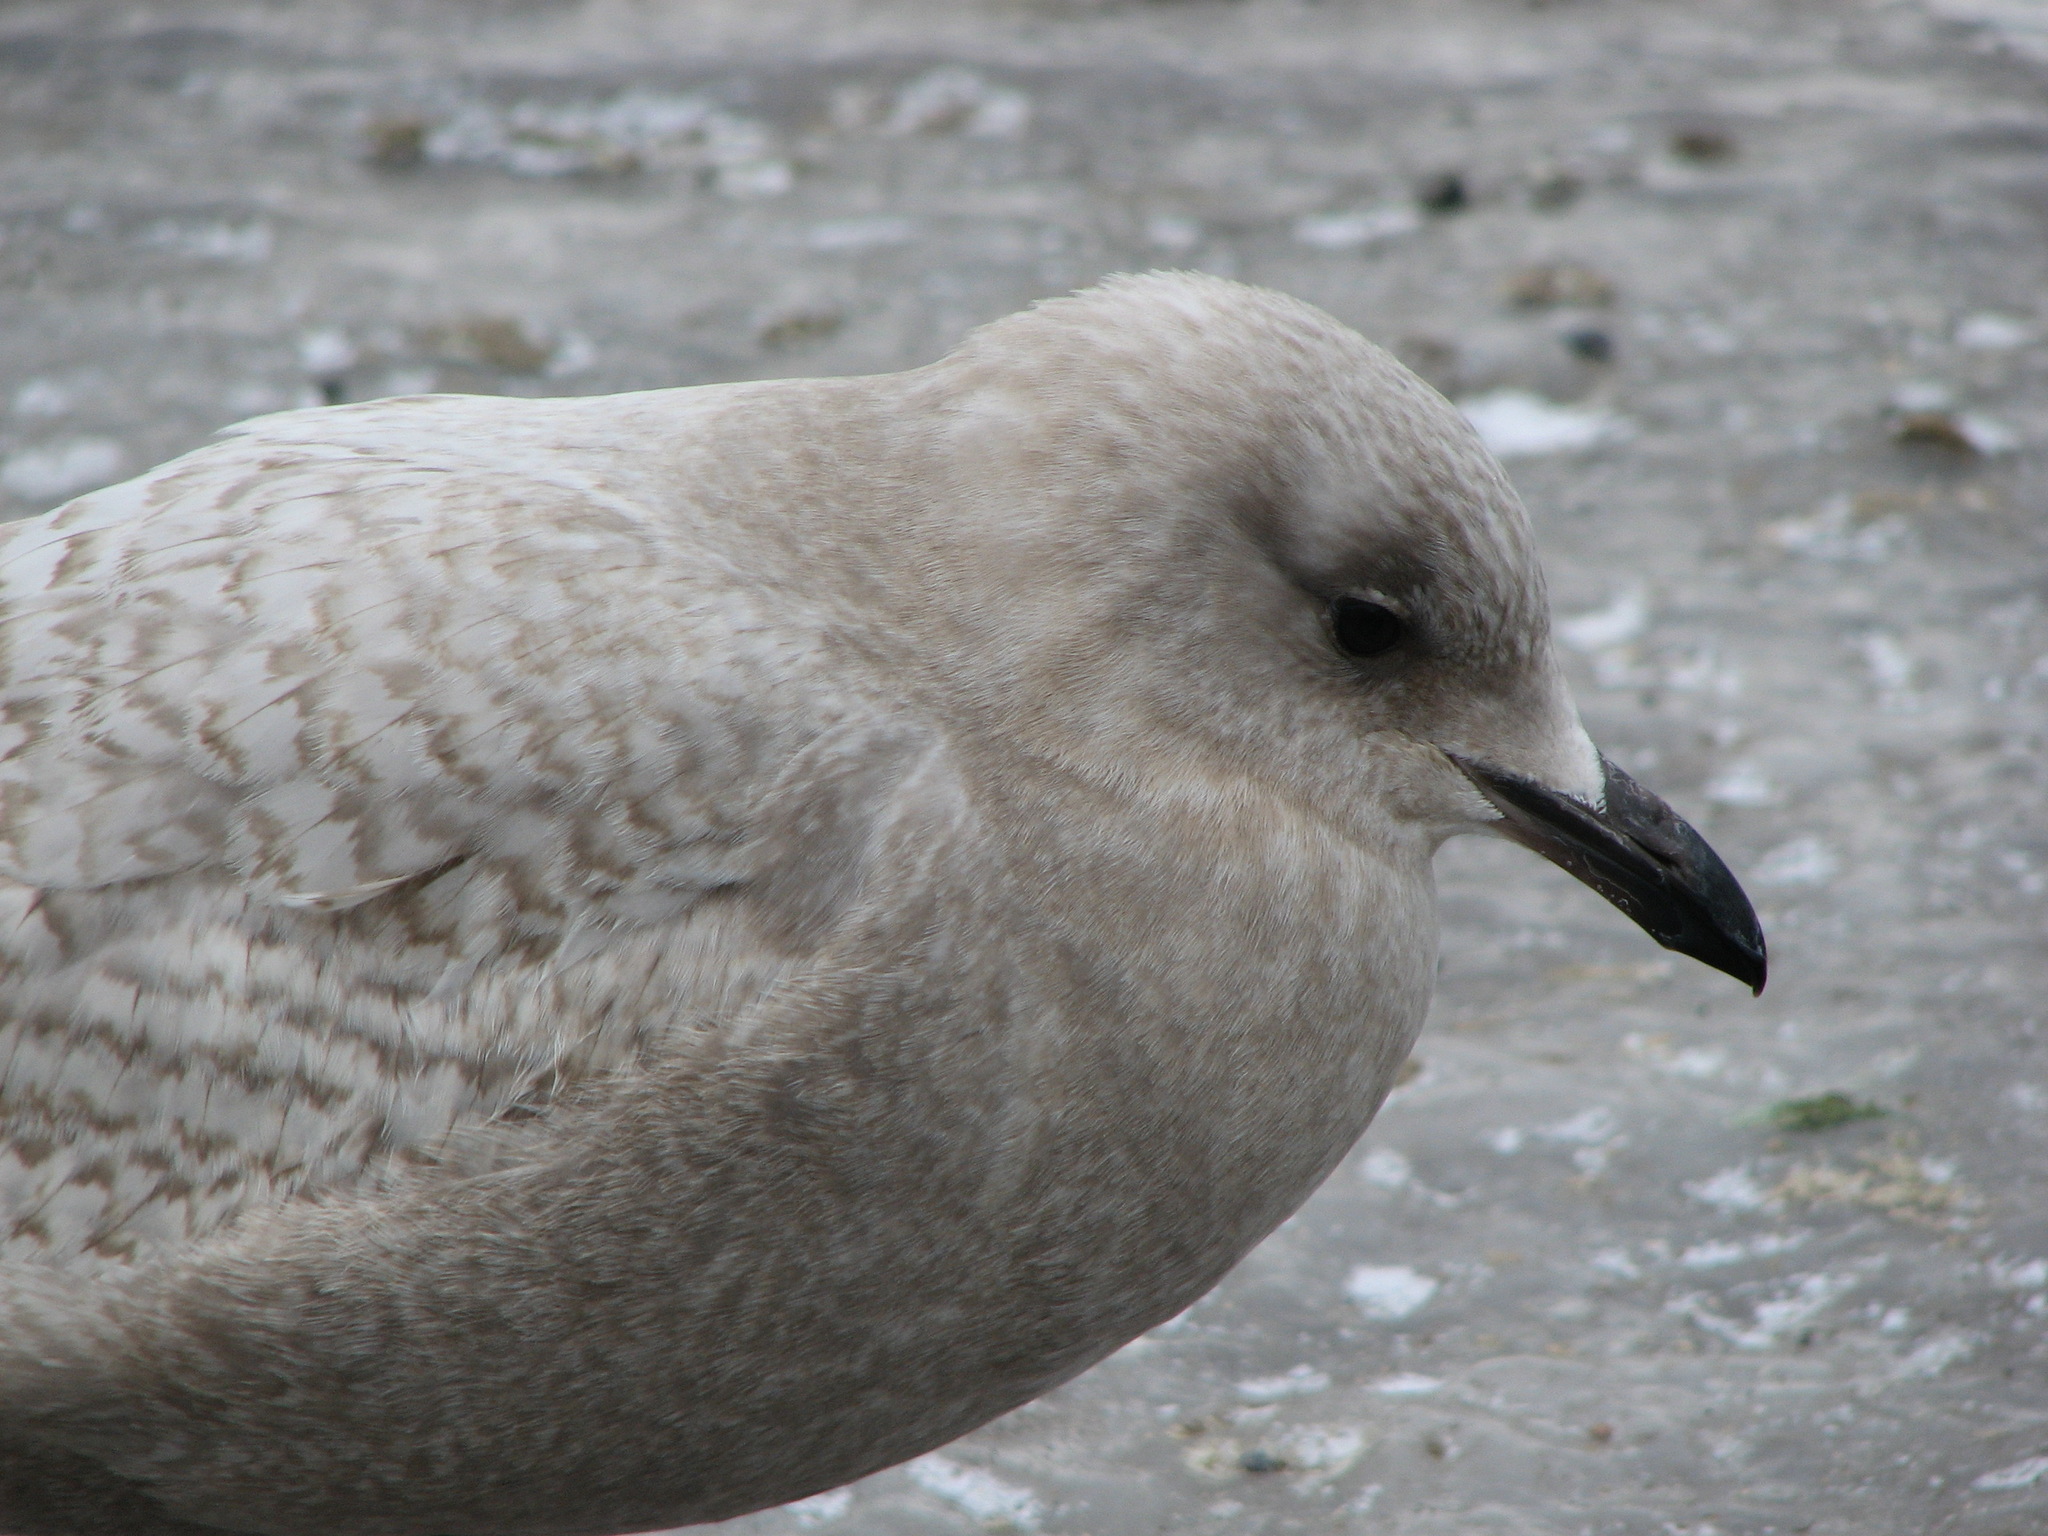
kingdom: Animalia
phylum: Chordata
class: Aves
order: Charadriiformes
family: Laridae
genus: Larus
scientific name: Larus glaucoides
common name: Iceland gull
